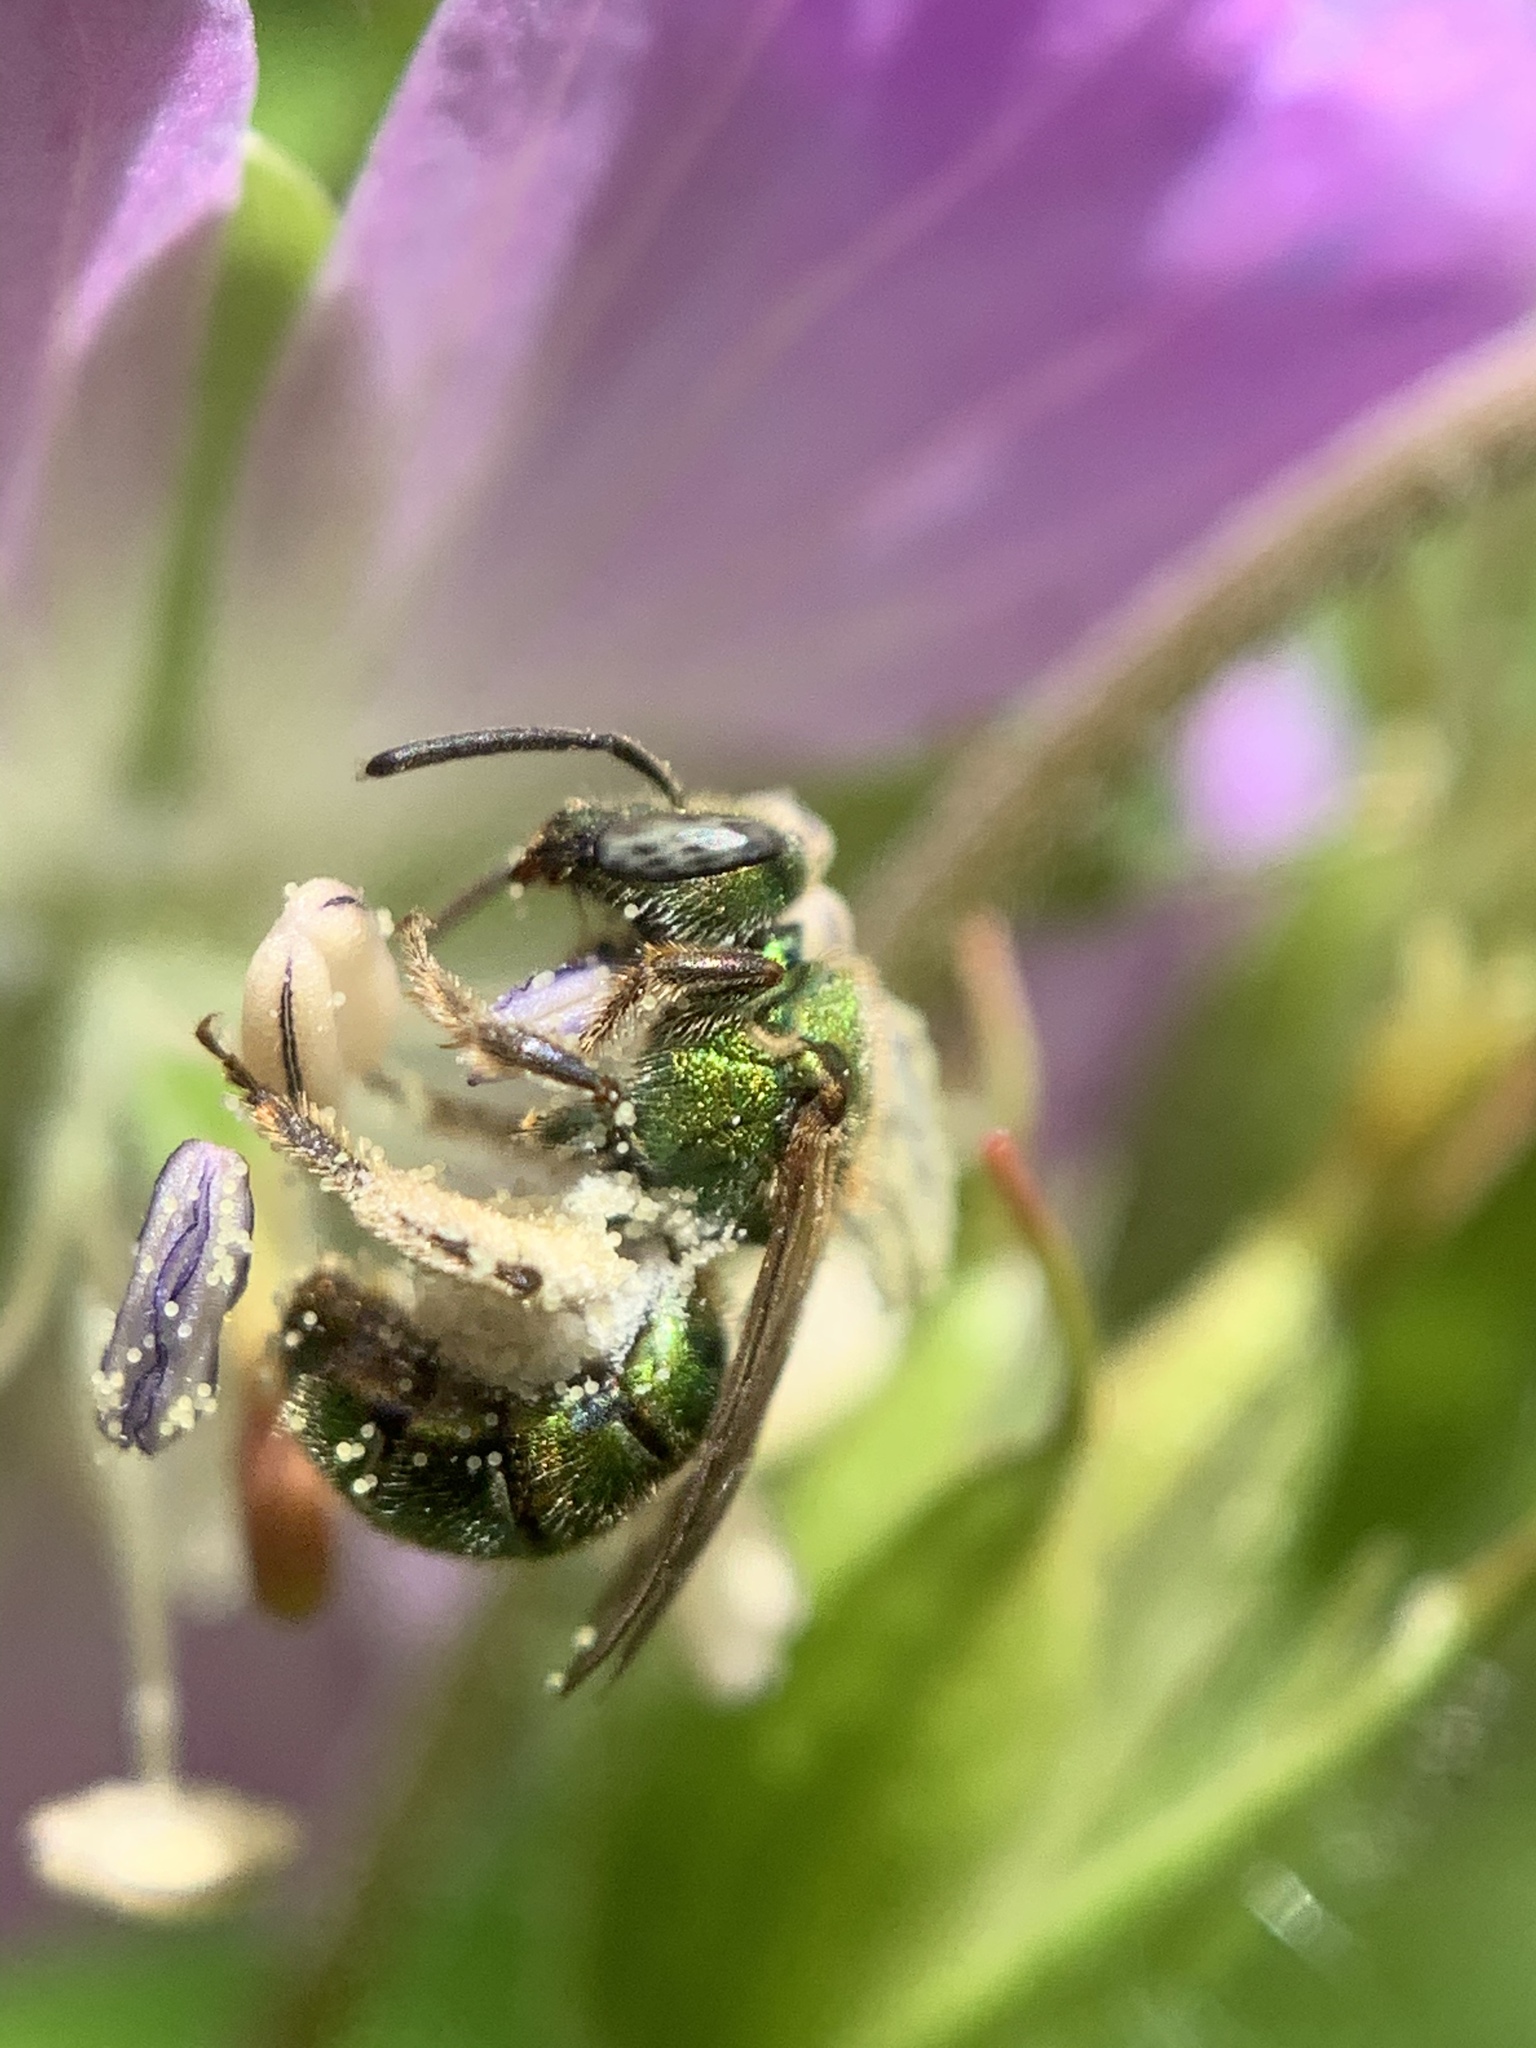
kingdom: Animalia
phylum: Arthropoda
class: Insecta
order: Hymenoptera
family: Halictidae
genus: Augochlorella
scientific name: Augochlorella aurata
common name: Golden sweat bee
